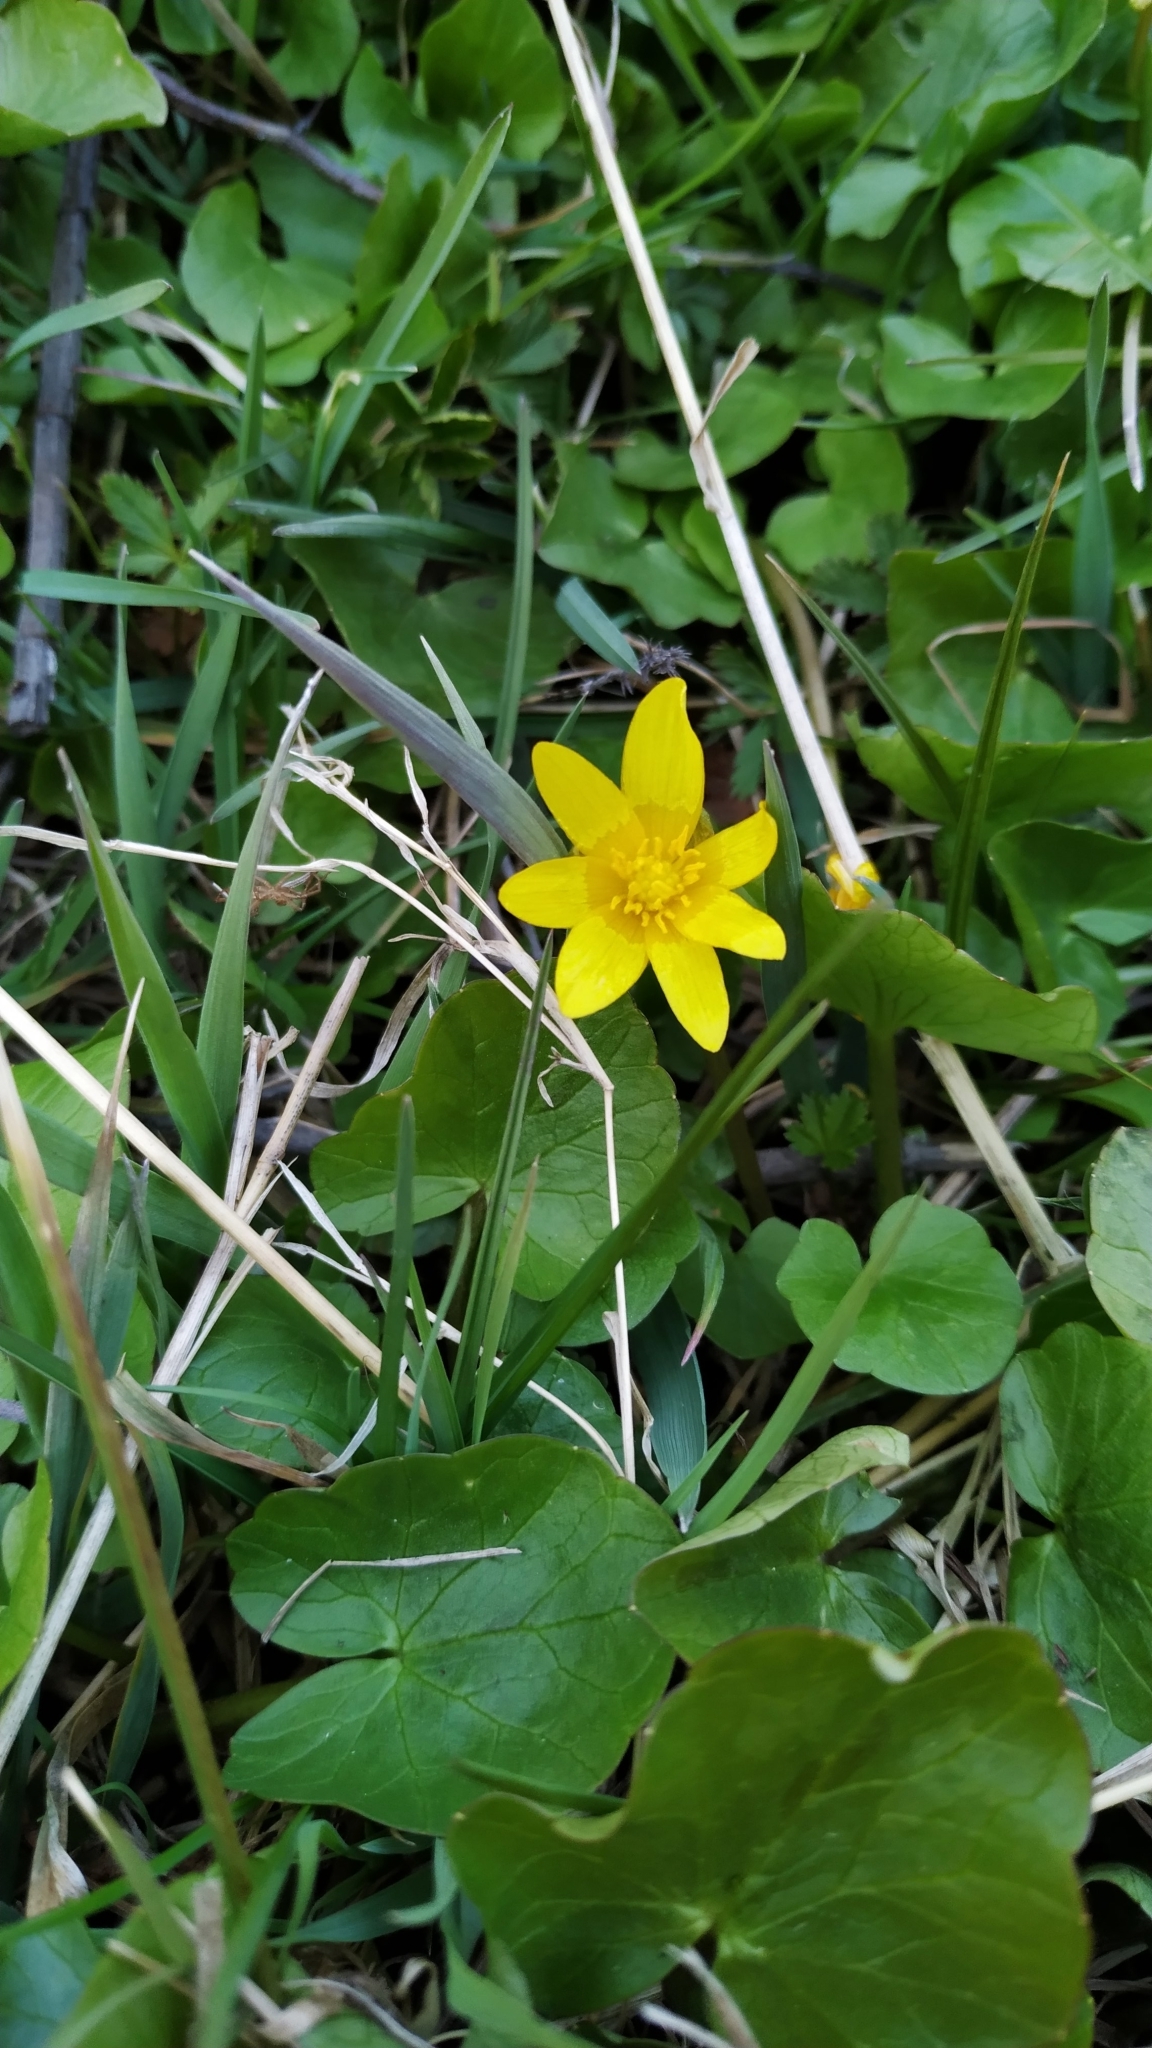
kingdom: Plantae
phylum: Tracheophyta
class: Magnoliopsida
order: Ranunculales
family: Ranunculaceae
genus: Ficaria
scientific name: Ficaria verna
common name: Lesser celandine
